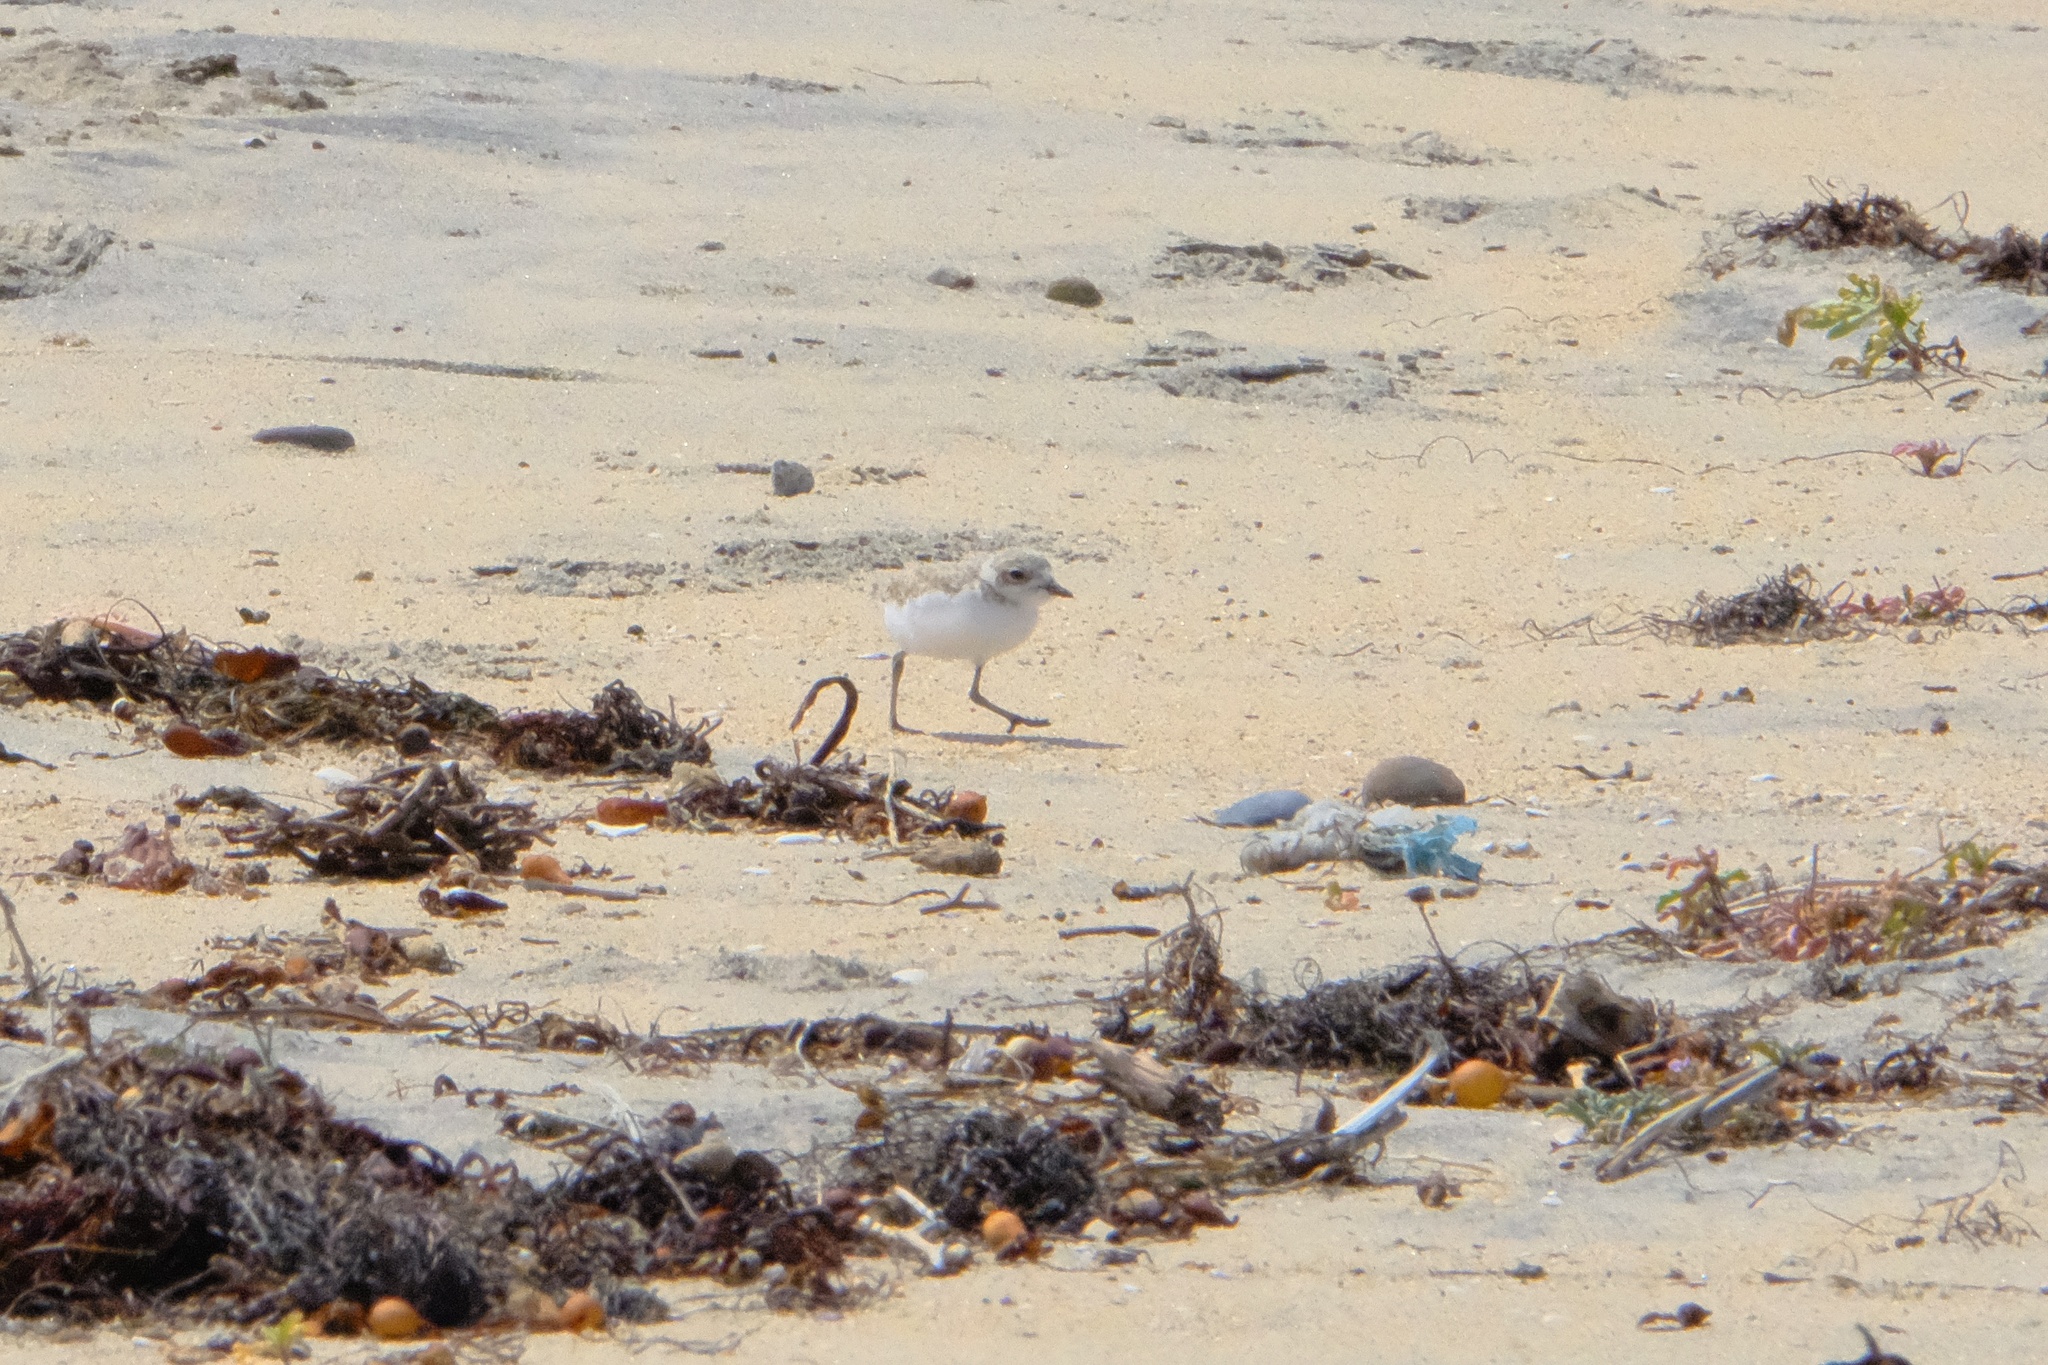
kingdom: Animalia
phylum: Chordata
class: Aves
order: Charadriiformes
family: Charadriidae
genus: Anarhynchus
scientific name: Anarhynchus
